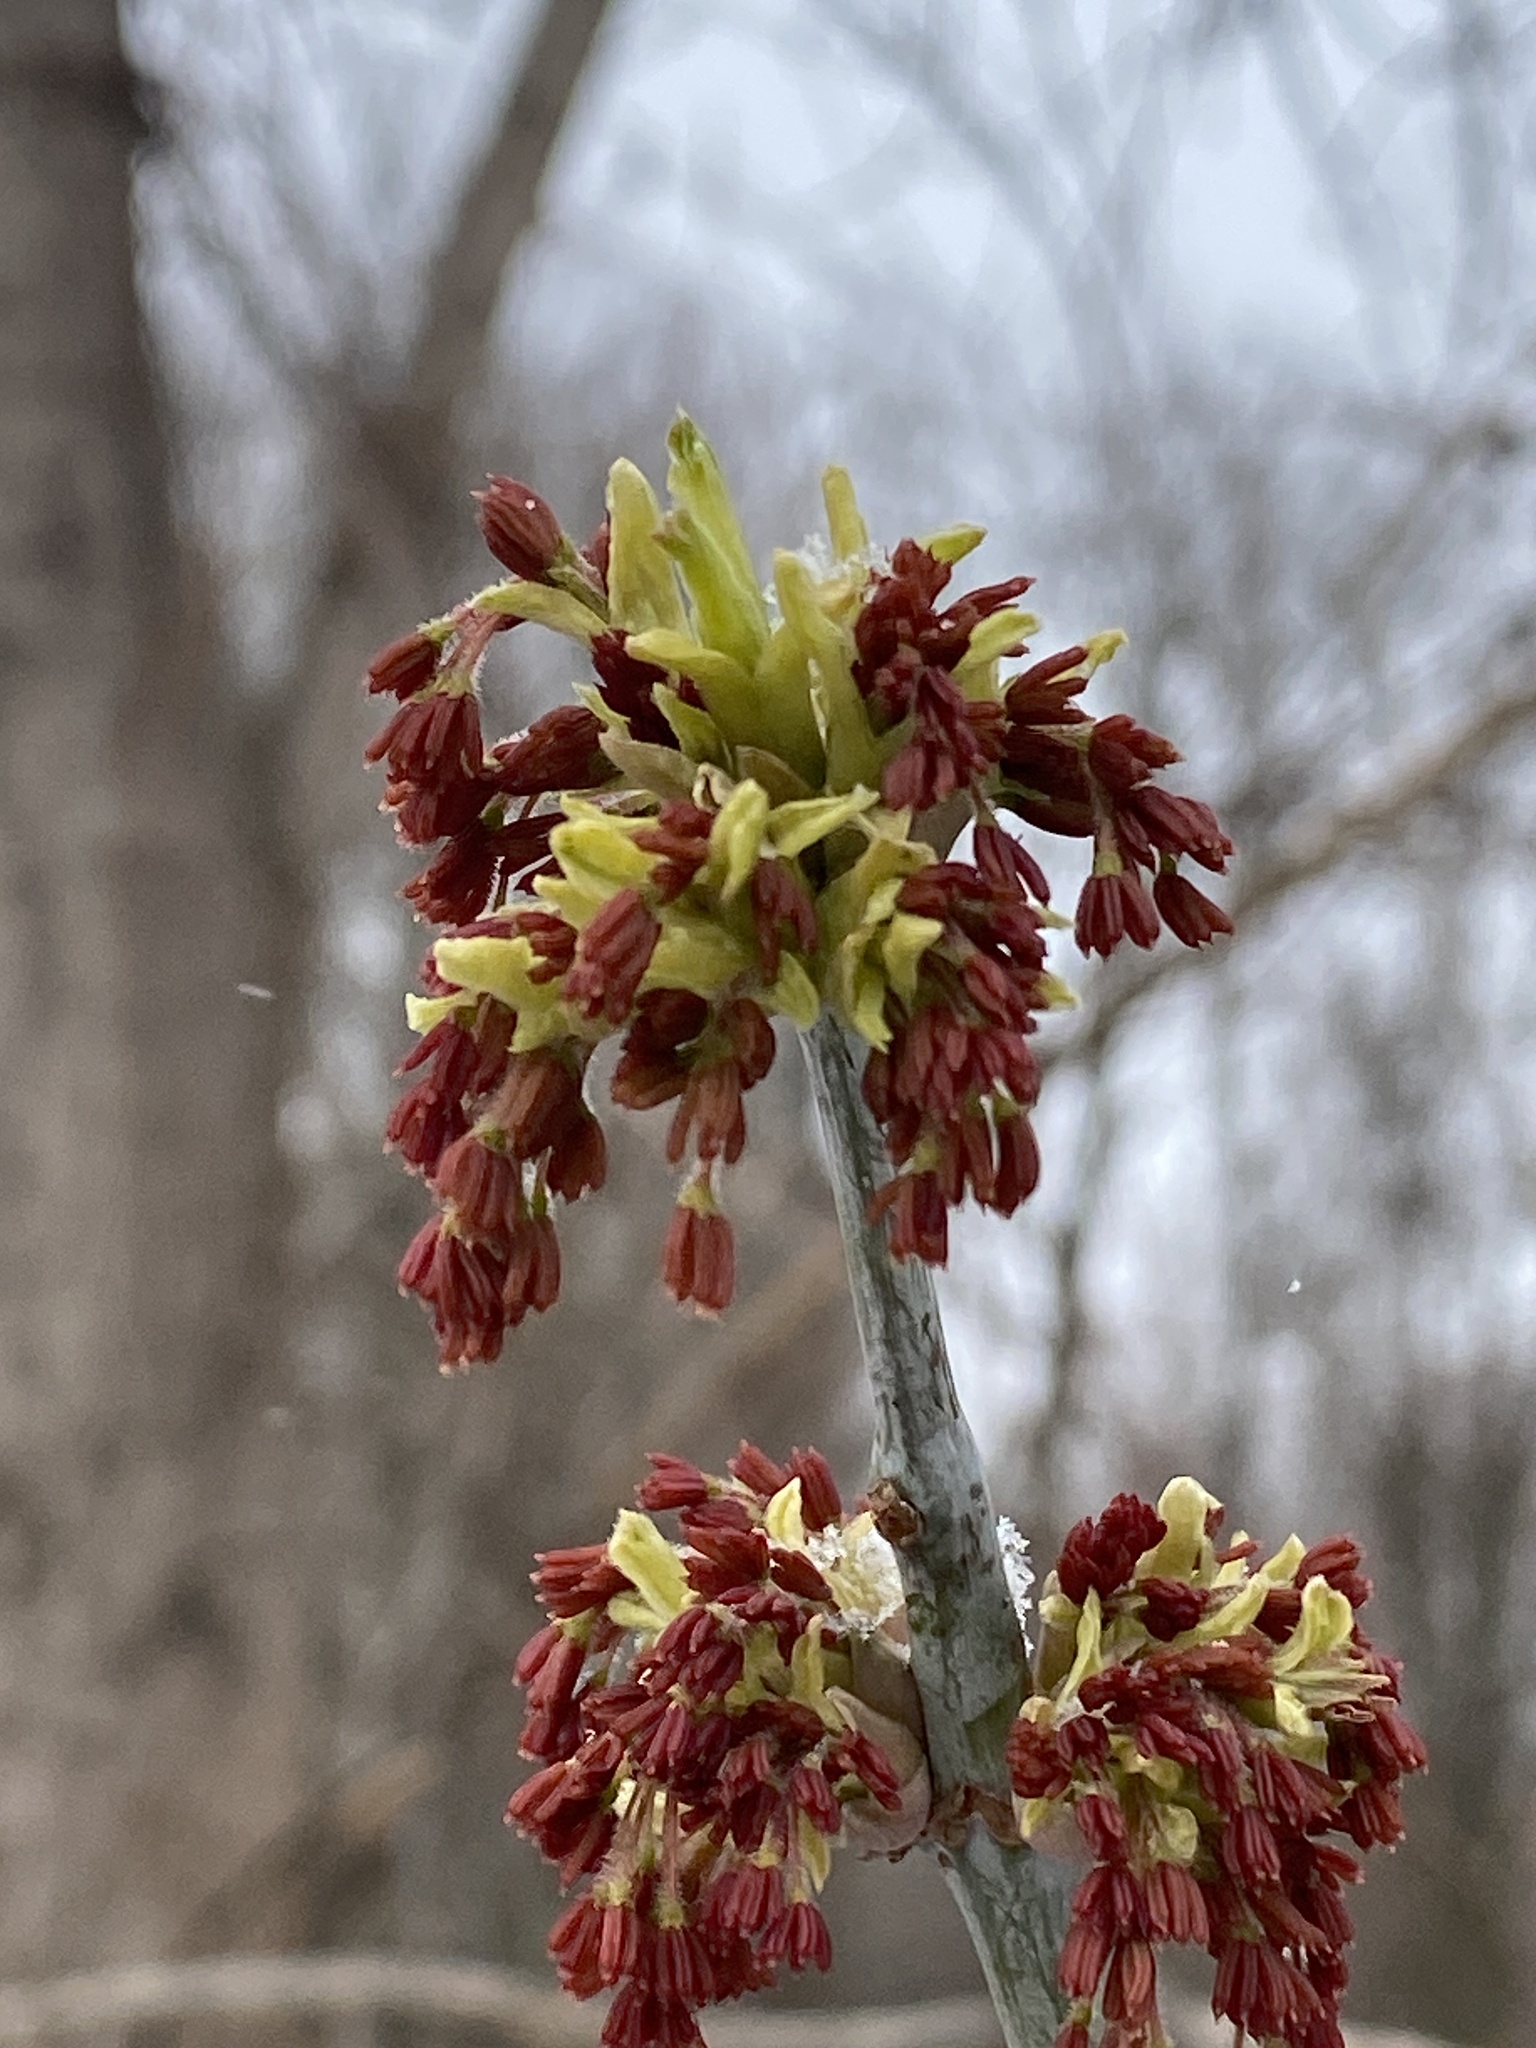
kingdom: Plantae
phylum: Tracheophyta
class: Magnoliopsida
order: Sapindales
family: Sapindaceae
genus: Acer
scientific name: Acer negundo
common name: Ashleaf maple
